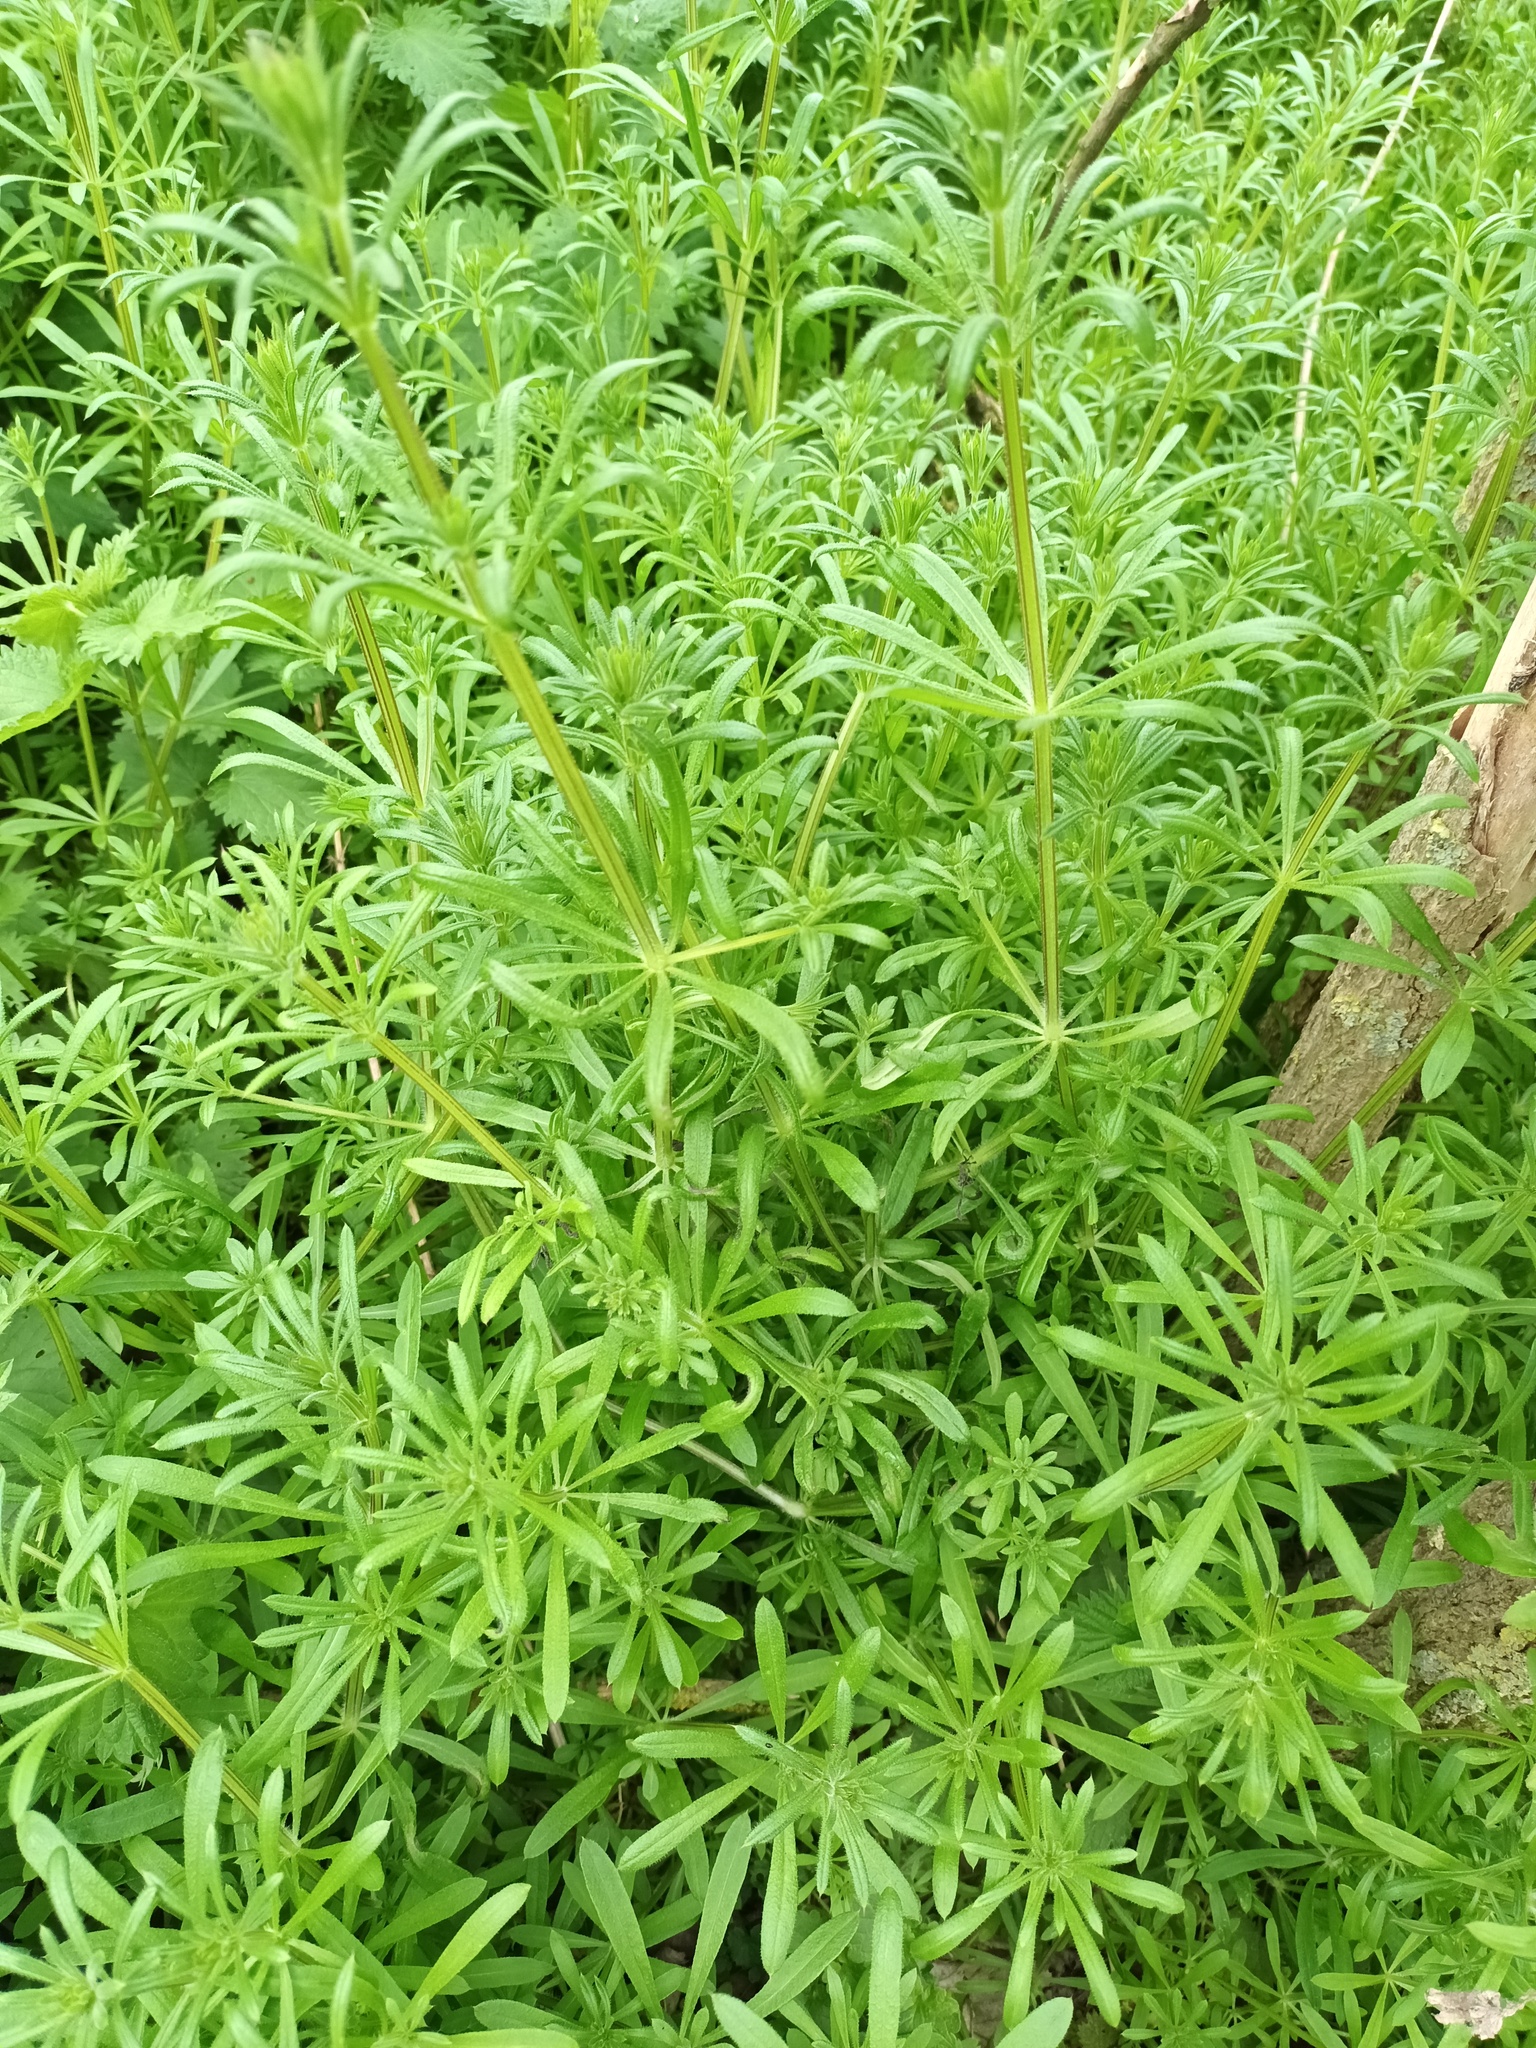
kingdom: Plantae
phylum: Tracheophyta
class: Magnoliopsida
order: Gentianales
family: Rubiaceae
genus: Galium
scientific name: Galium aparine
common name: Cleavers
